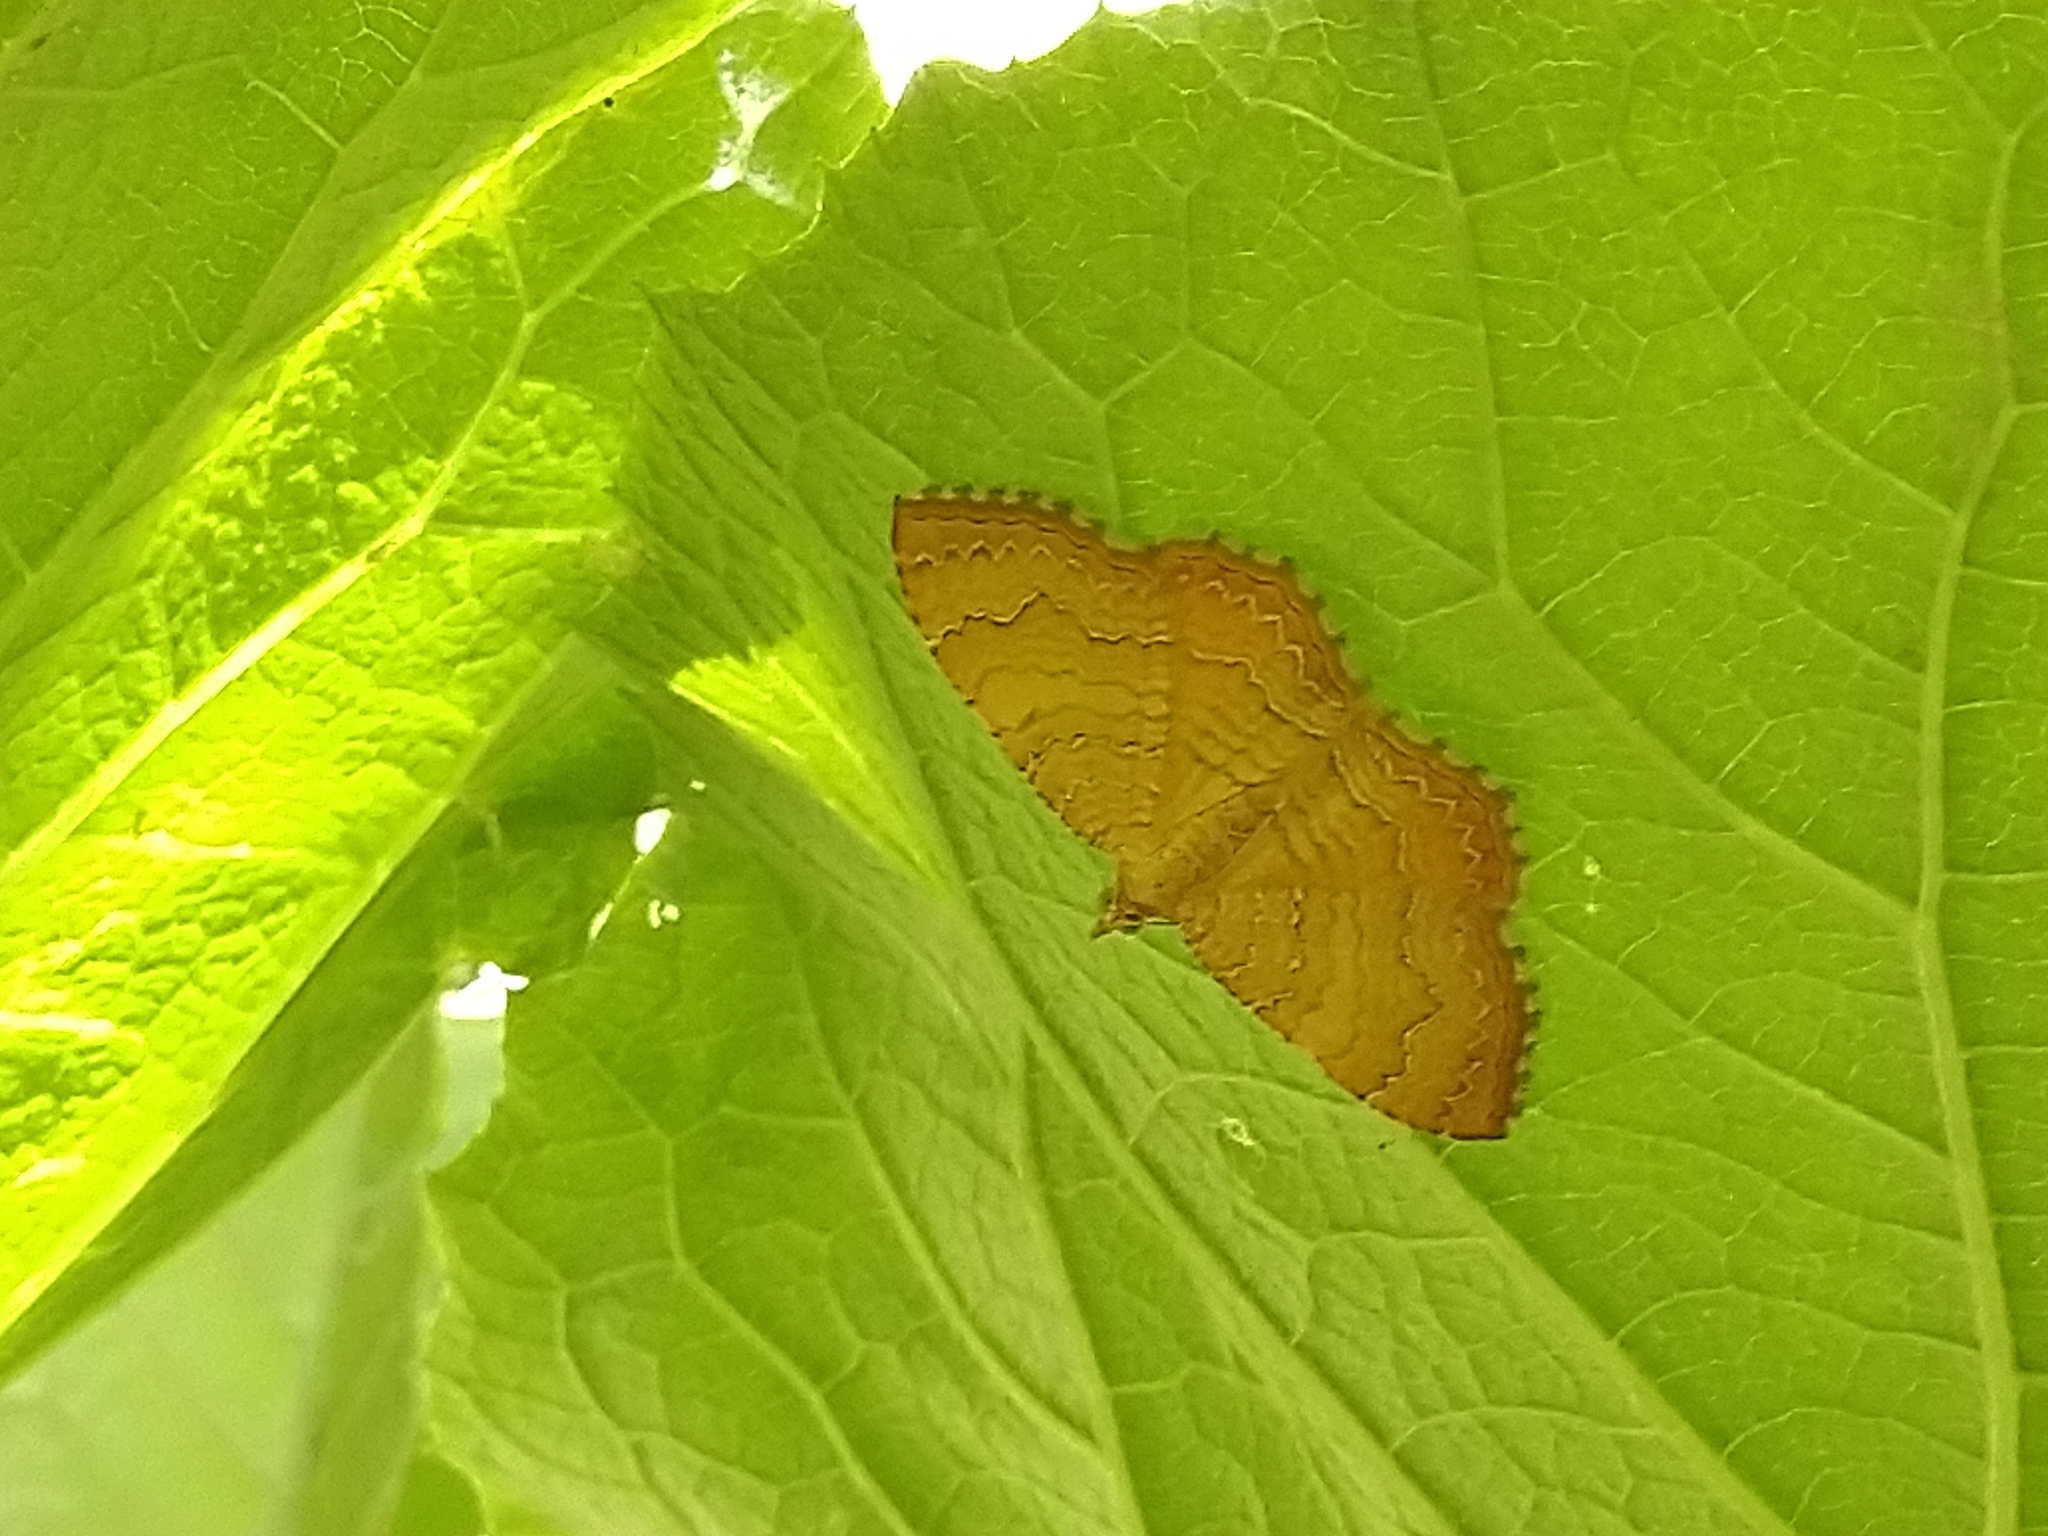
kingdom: Animalia
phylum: Arthropoda
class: Insecta
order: Lepidoptera
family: Geometridae
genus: Camptogramma
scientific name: Camptogramma bilineata
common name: Yellow shell
